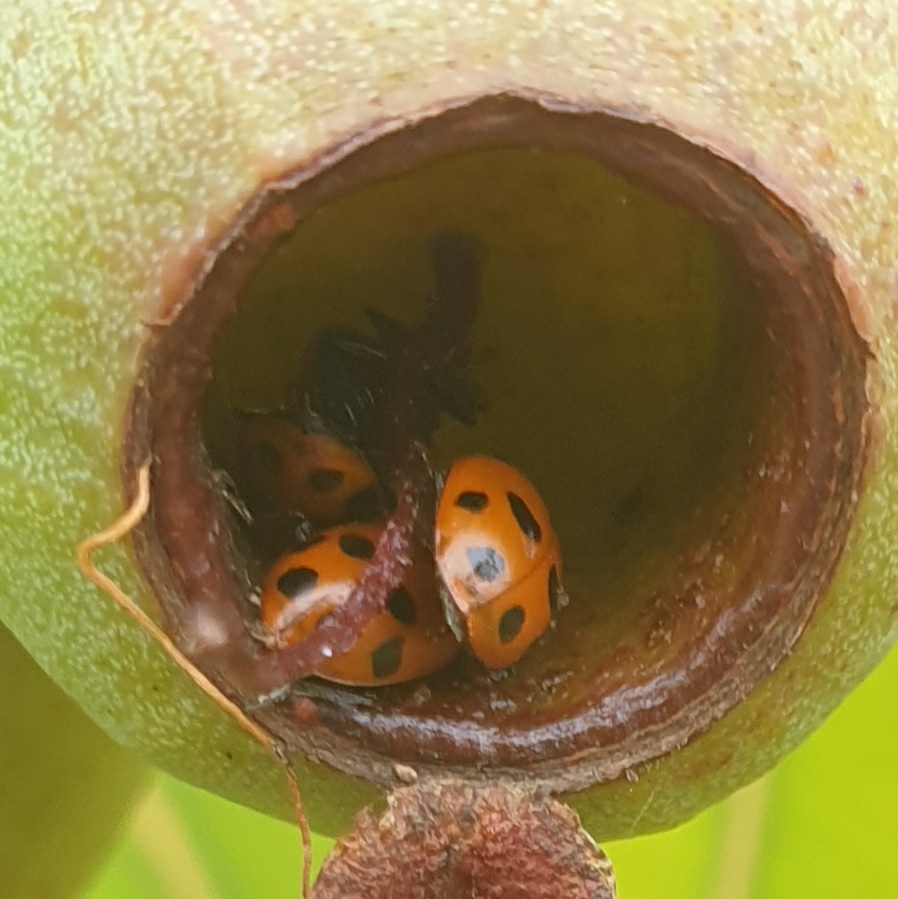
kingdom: Animalia
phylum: Arthropoda
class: Insecta
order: Coleoptera
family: Coccinellidae
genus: Hippodamia
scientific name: Hippodamia variegata
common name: Ladybird beetle
